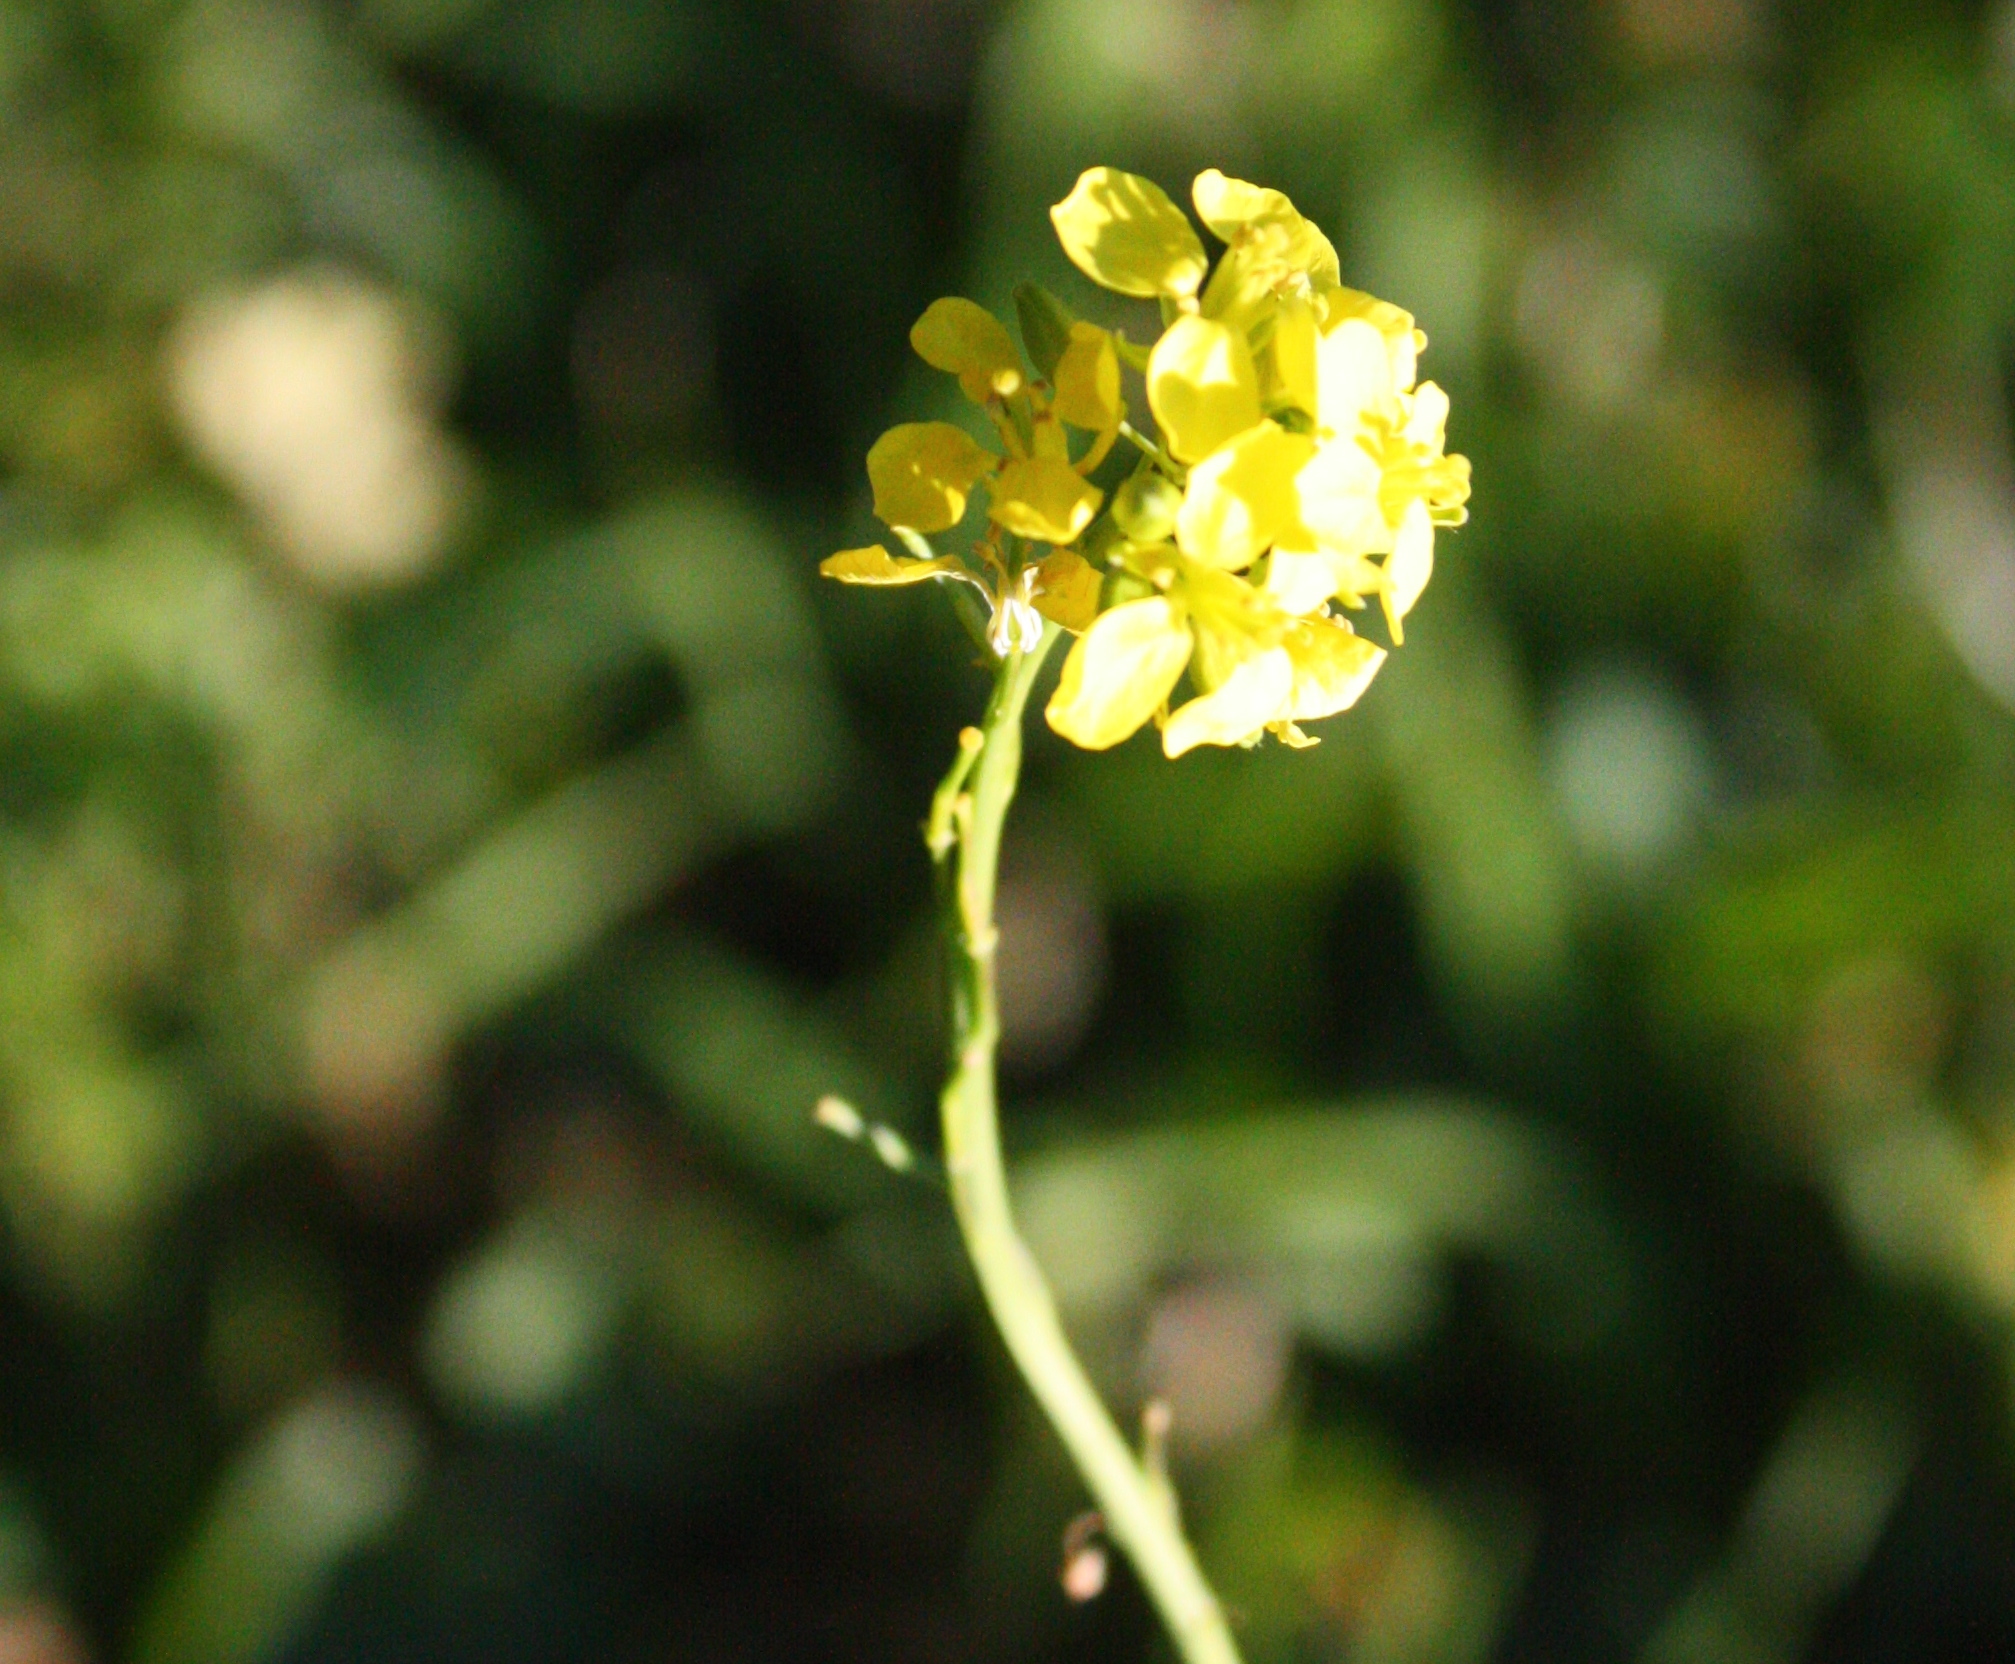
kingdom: Plantae
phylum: Tracheophyta
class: Magnoliopsida
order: Brassicales
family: Brassicaceae
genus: Hirschfeldia
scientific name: Hirschfeldia incana
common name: Hoary mustard
